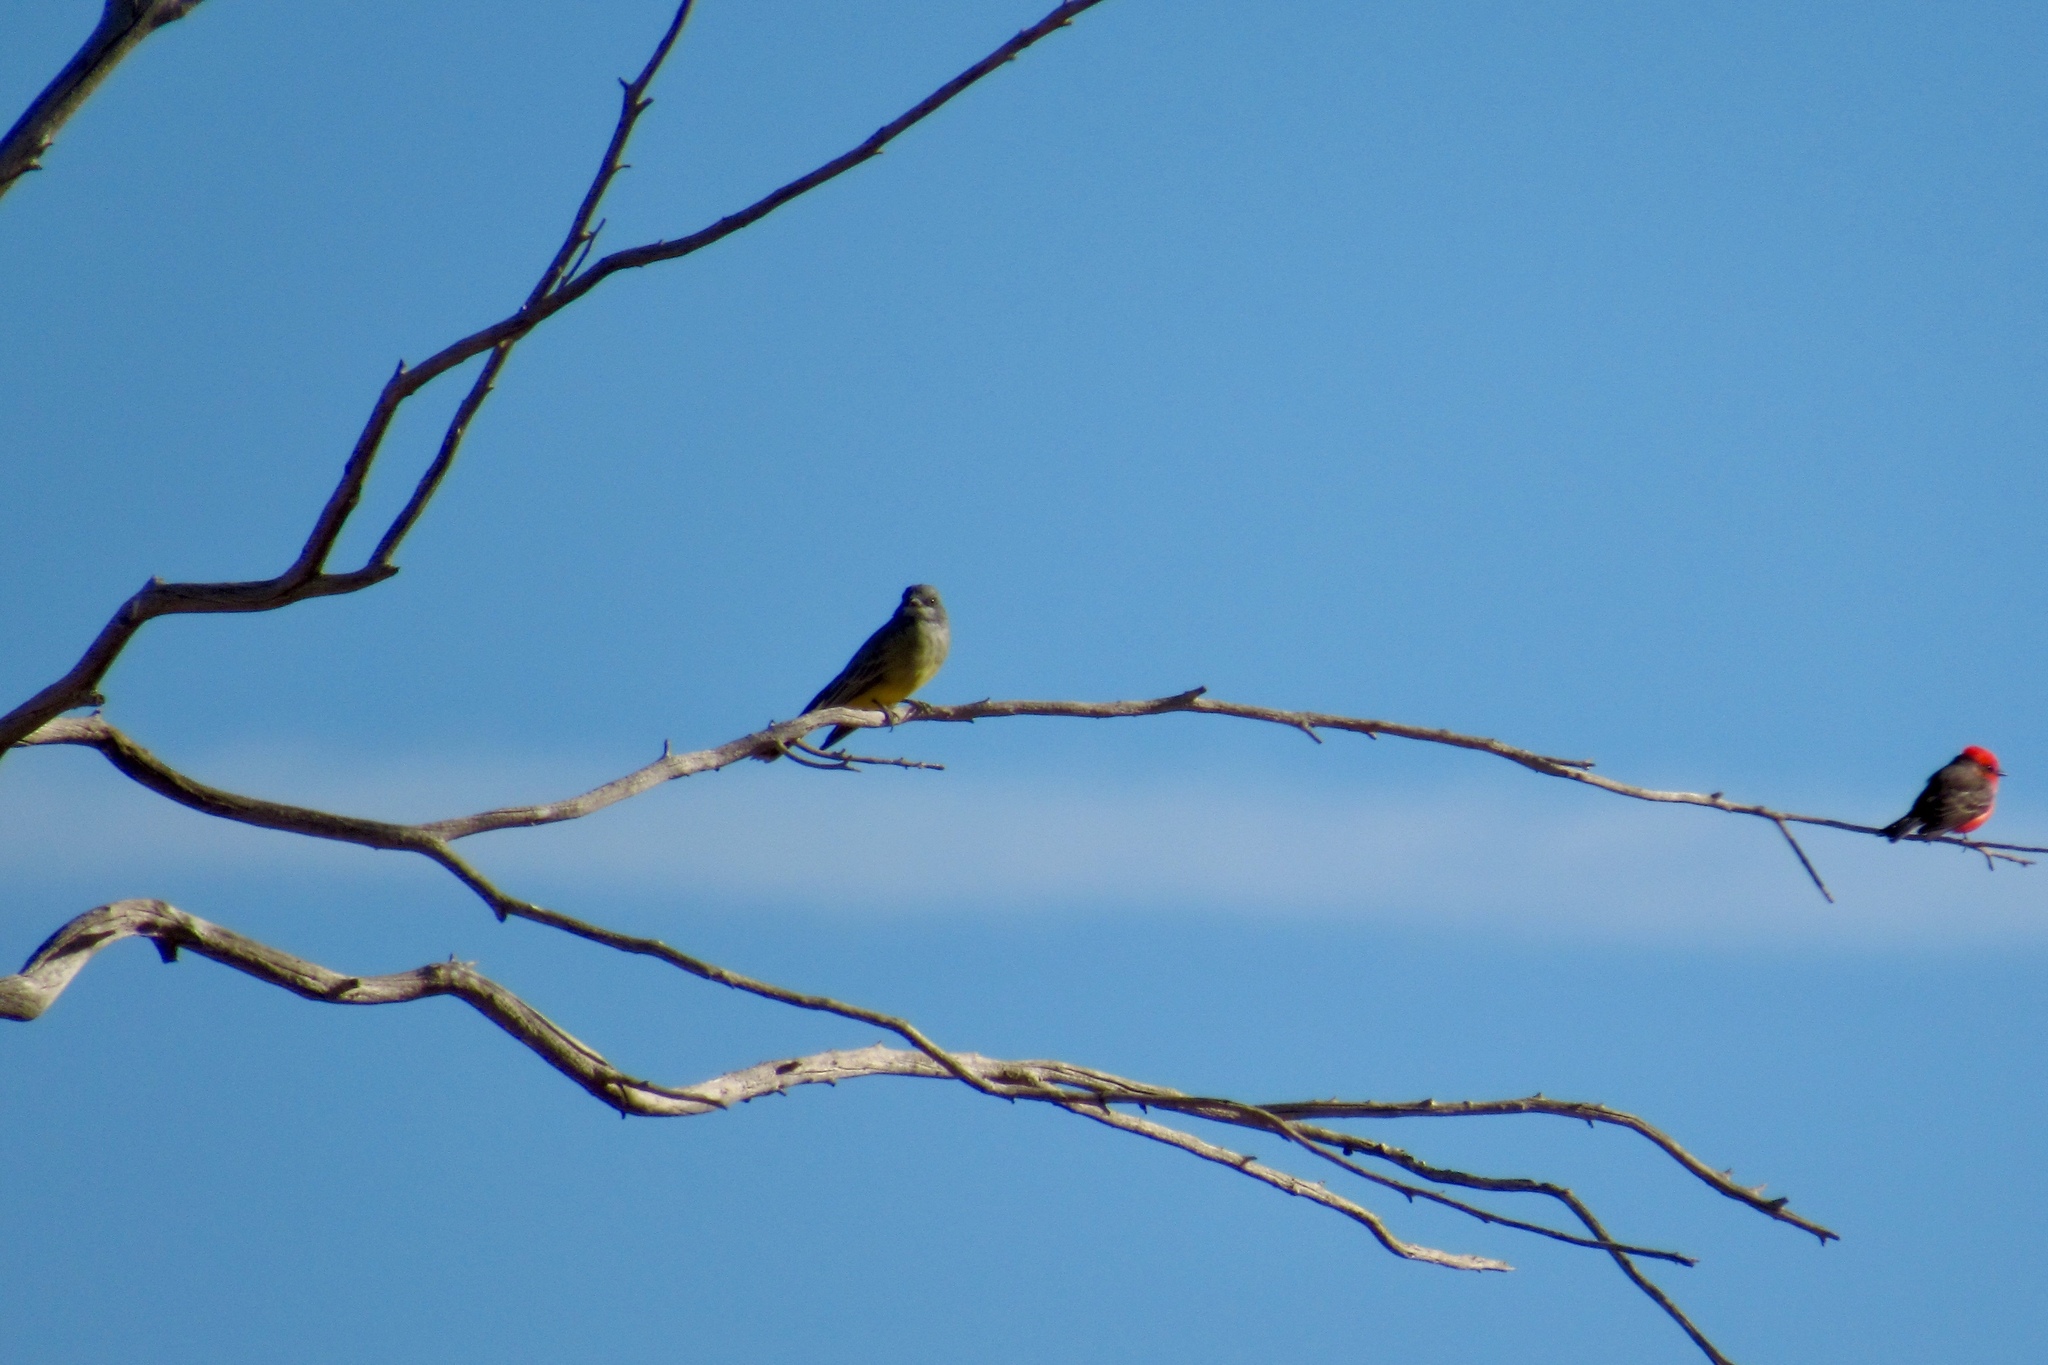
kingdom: Animalia
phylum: Chordata
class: Aves
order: Passeriformes
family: Tyrannidae
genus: Tyrannus
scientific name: Tyrannus vociferans
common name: Cassin's kingbird
